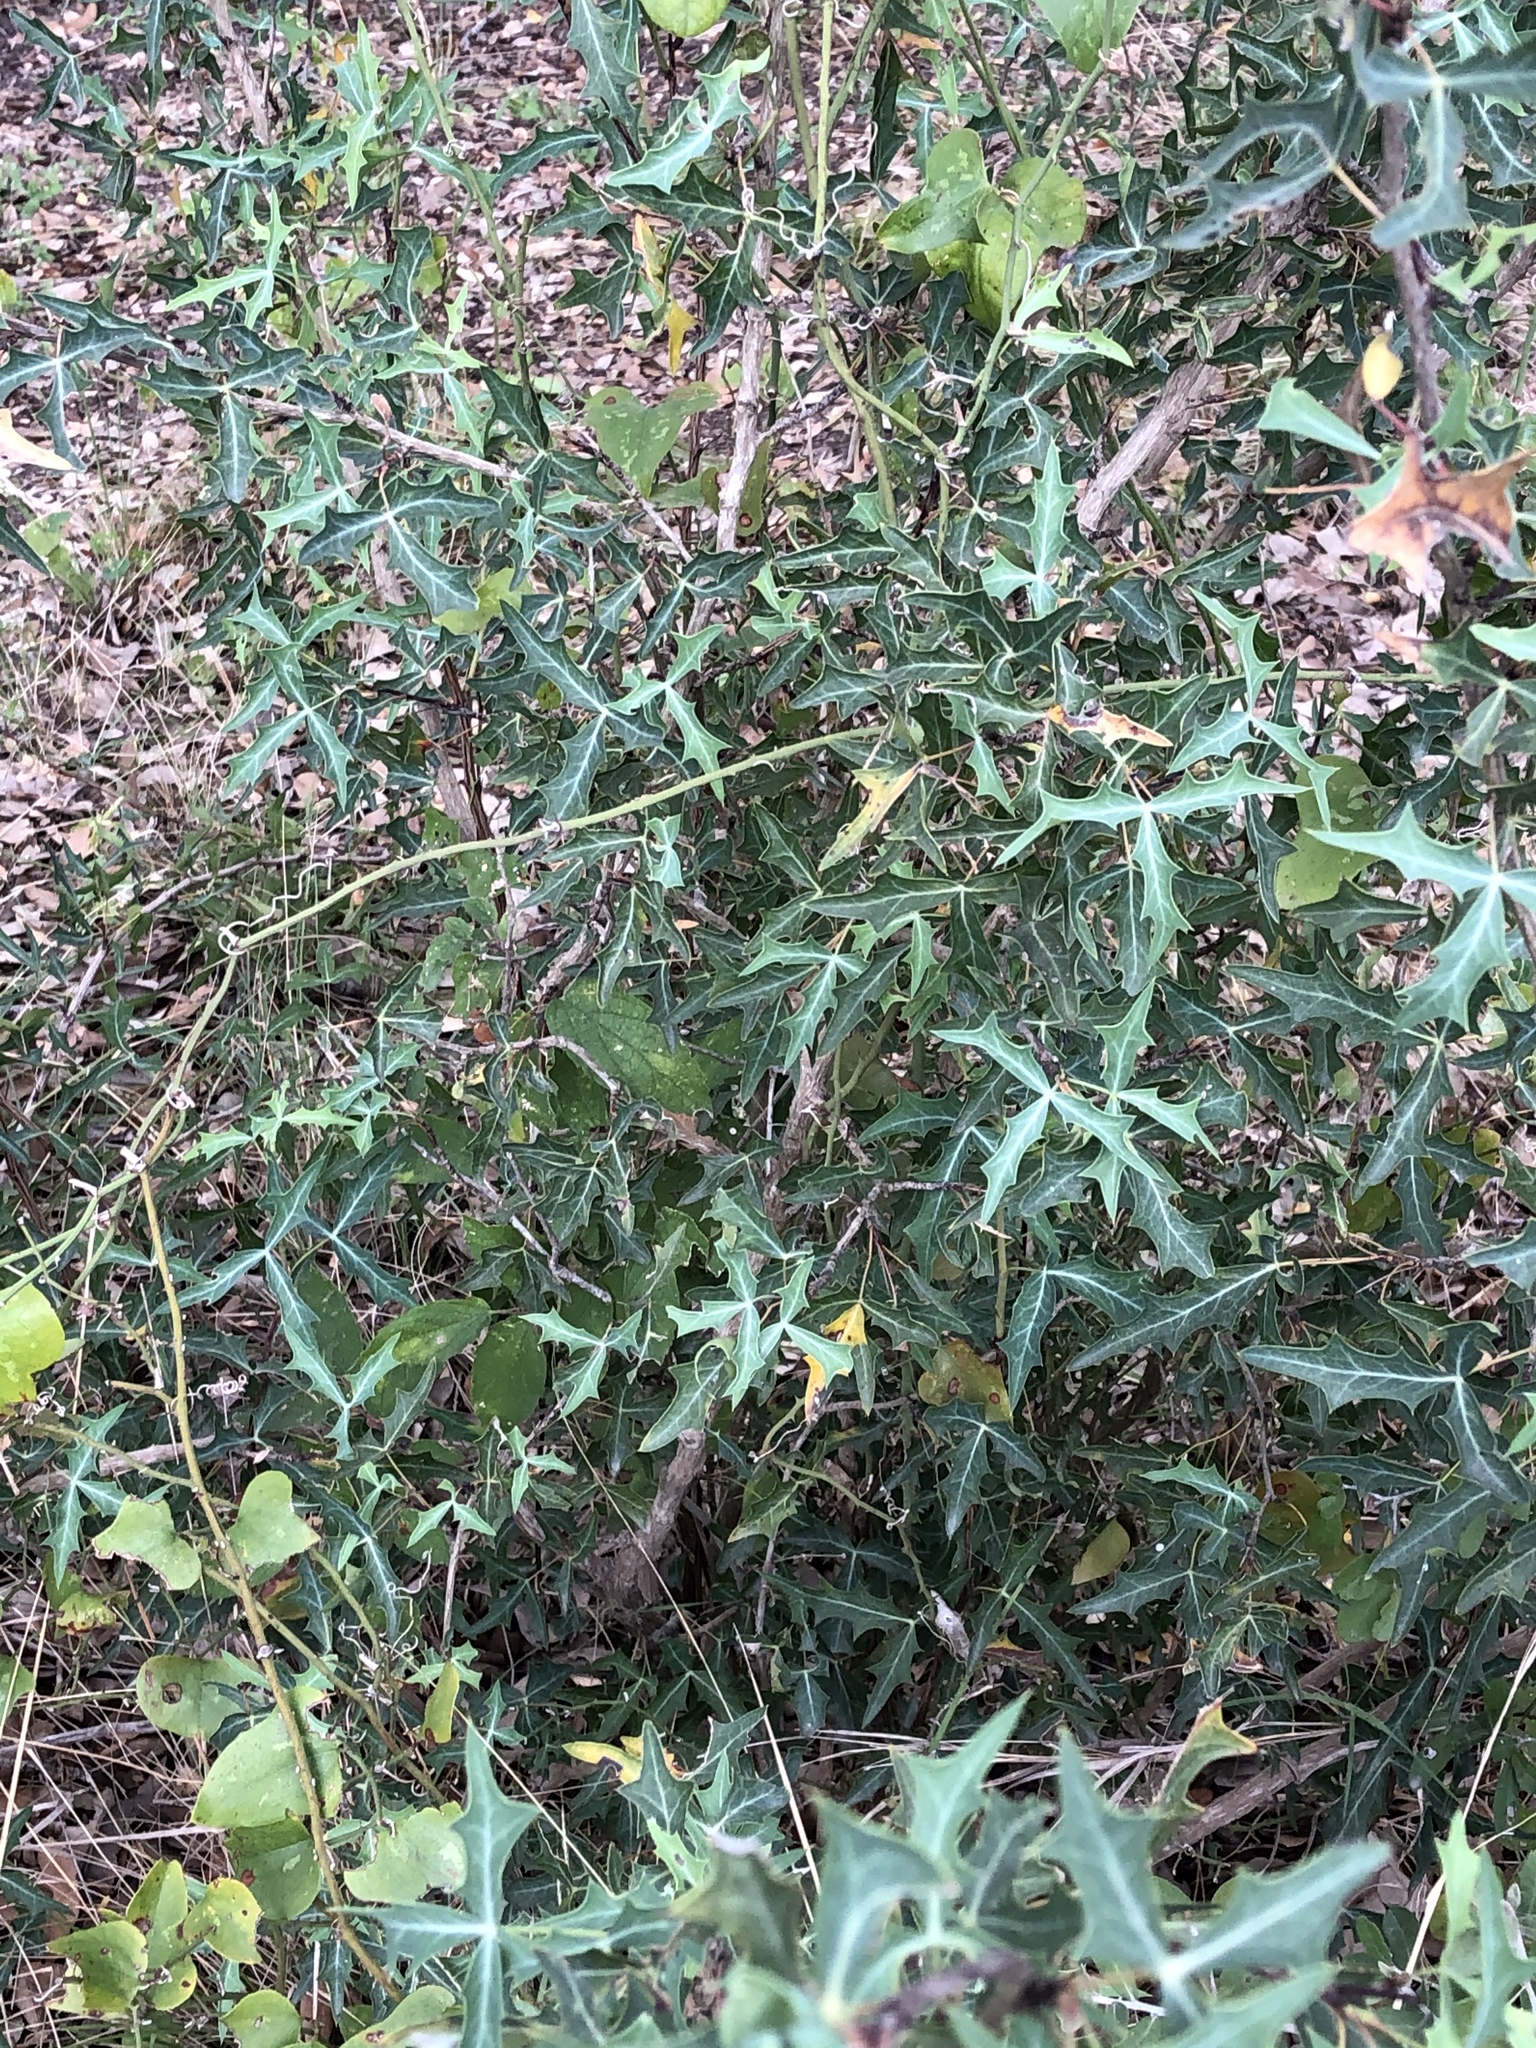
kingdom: Plantae
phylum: Tracheophyta
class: Magnoliopsida
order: Ranunculales
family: Berberidaceae
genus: Alloberberis
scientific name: Alloberberis trifoliolata
